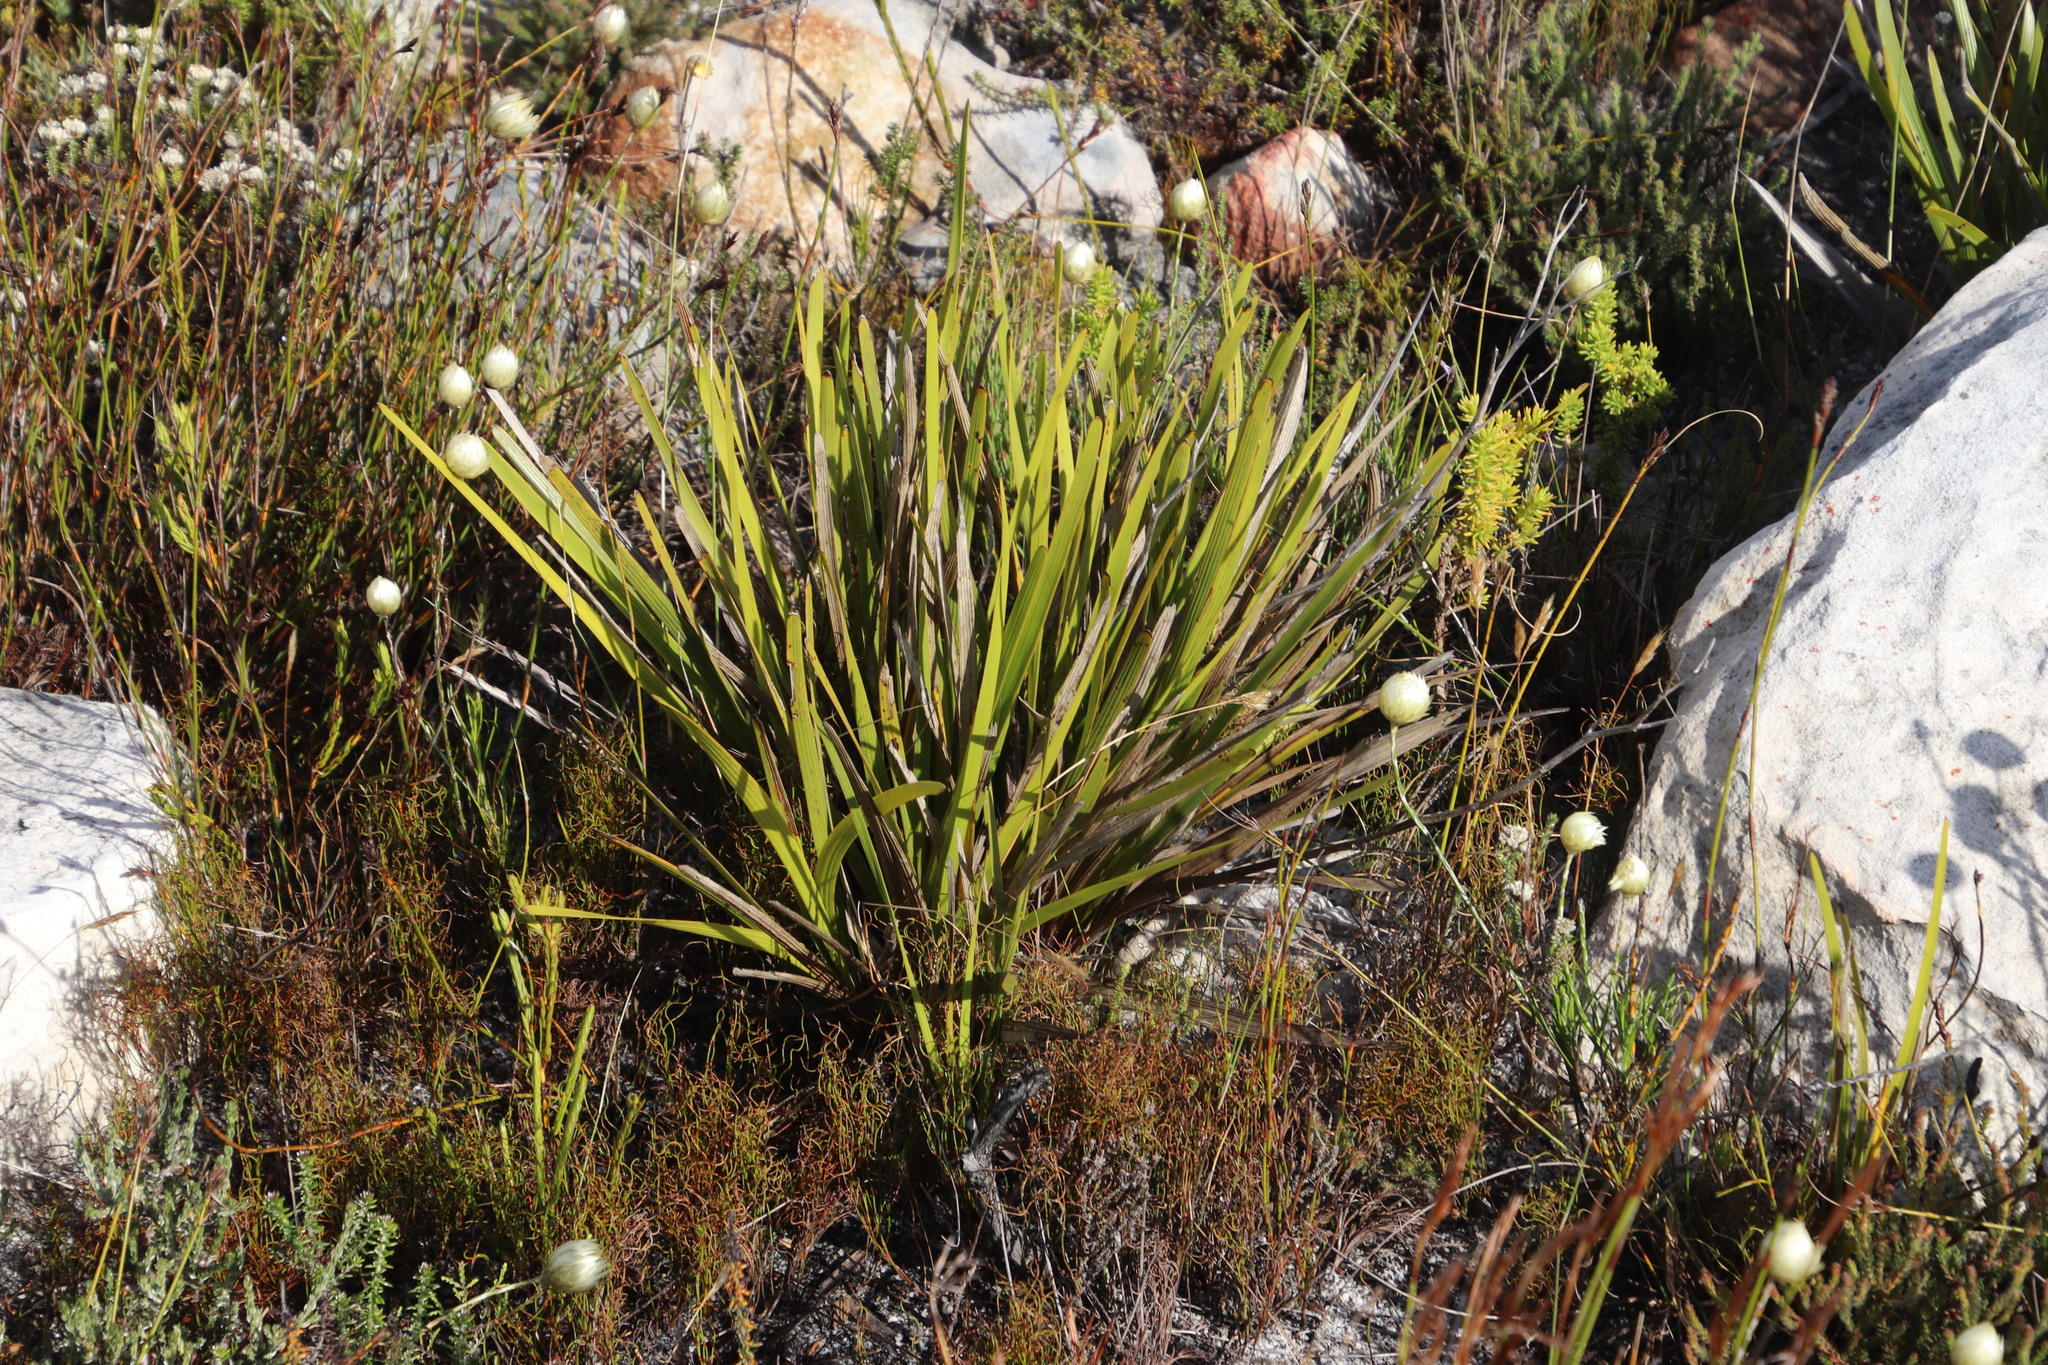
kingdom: Plantae
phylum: Tracheophyta
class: Magnoliopsida
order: Asterales
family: Asteraceae
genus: Corymbium
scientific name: Corymbium glabrum
